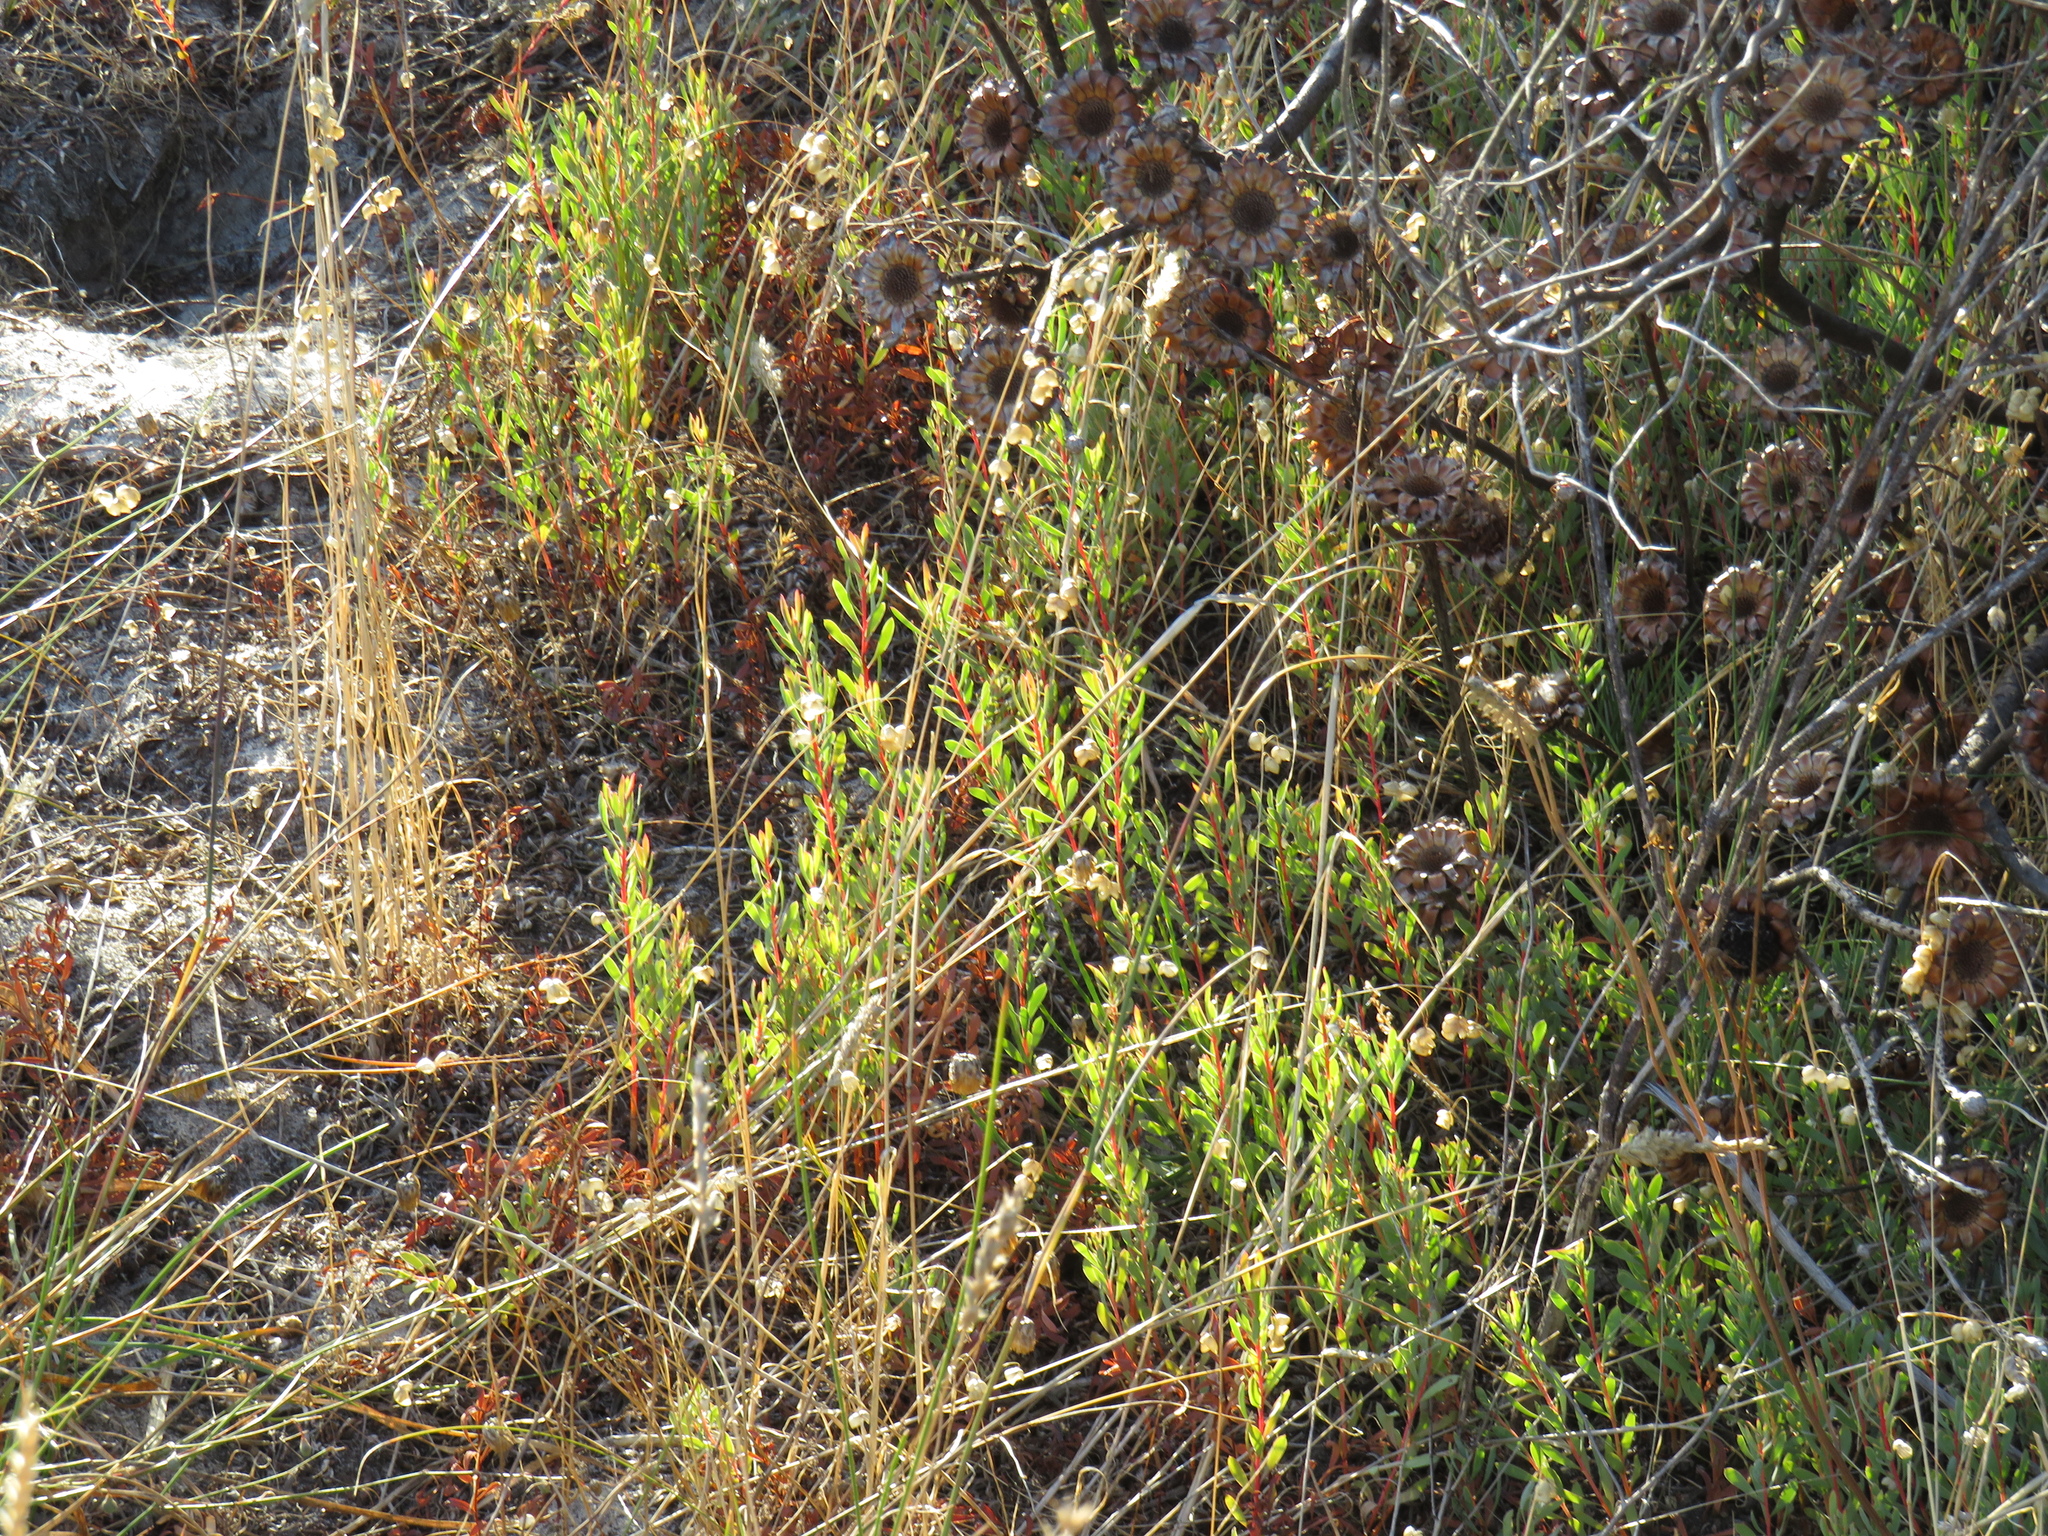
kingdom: Plantae
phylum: Tracheophyta
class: Magnoliopsida
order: Proteales
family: Proteaceae
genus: Protea
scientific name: Protea scolymocephala
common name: Thistle sugarbush
